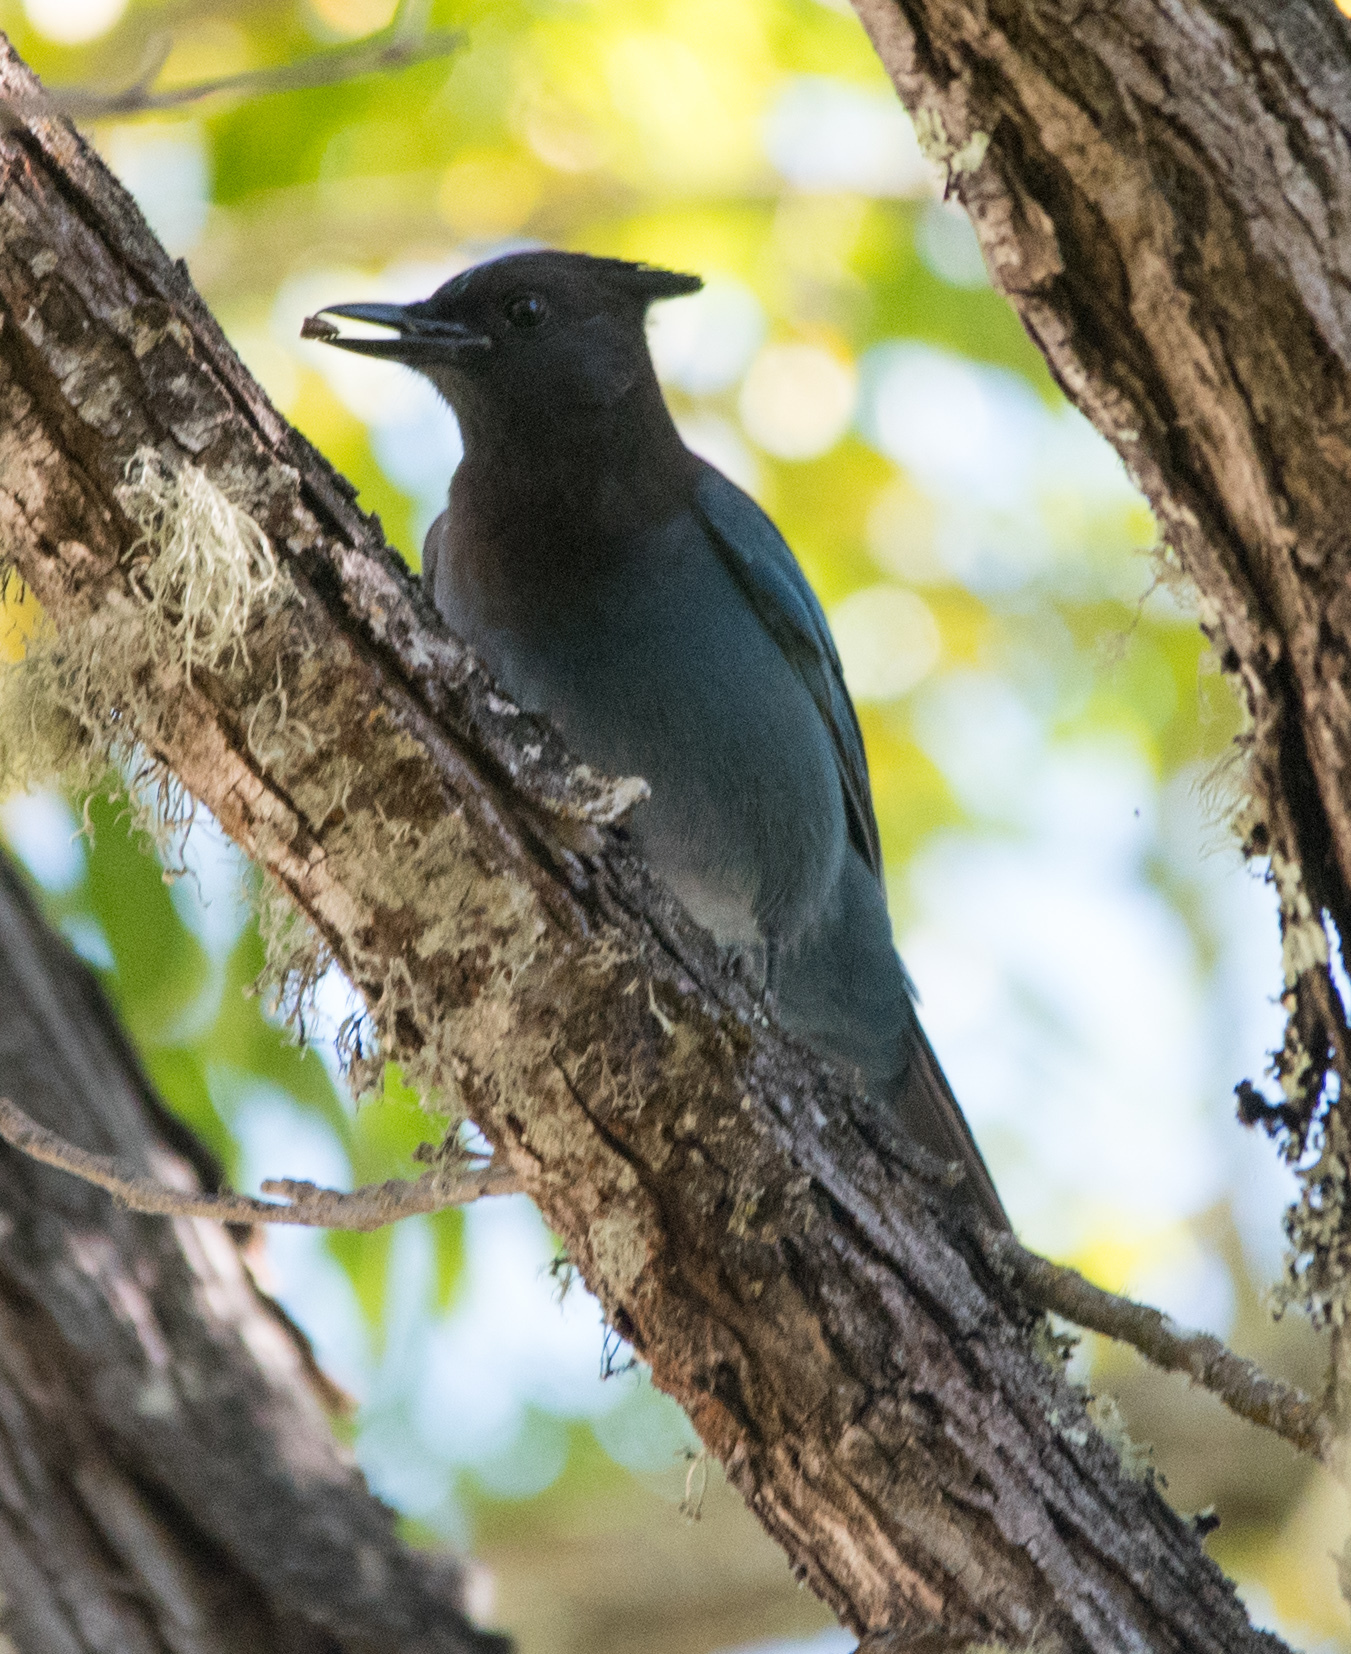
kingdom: Animalia
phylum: Chordata
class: Aves
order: Passeriformes
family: Corvidae
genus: Cyanocitta
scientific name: Cyanocitta stelleri
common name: Steller's jay
